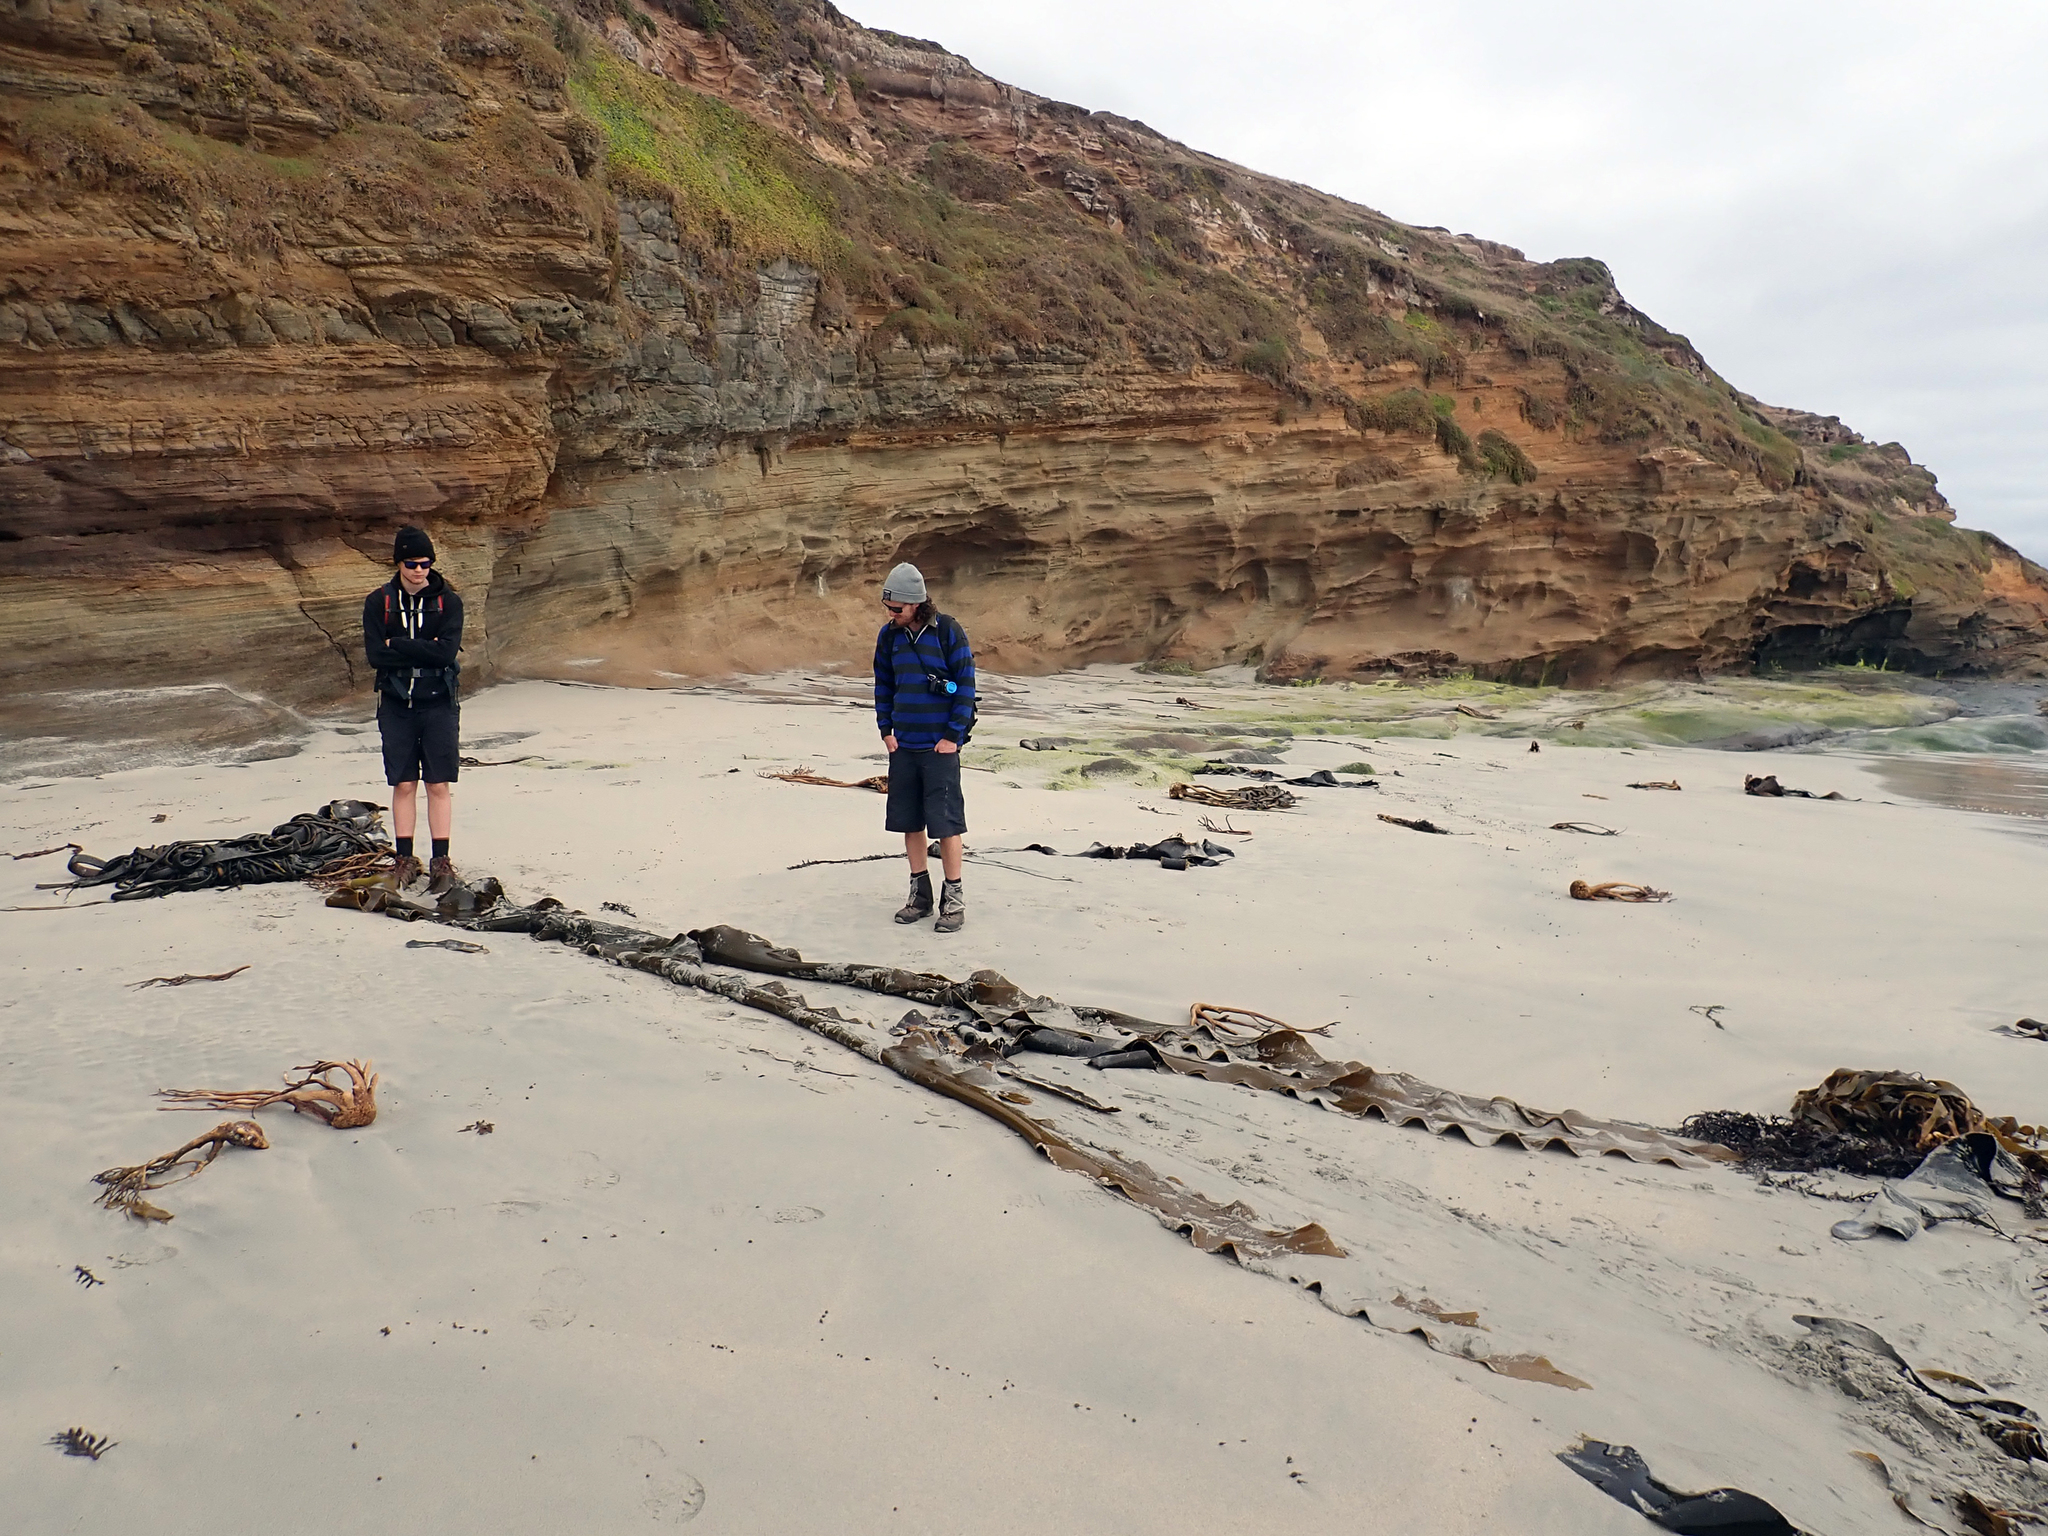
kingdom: Chromista
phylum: Ochrophyta
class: Phaeophyceae
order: Fucales
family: Durvillaeaceae
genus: Durvillaea
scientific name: Durvillaea chathamensis
